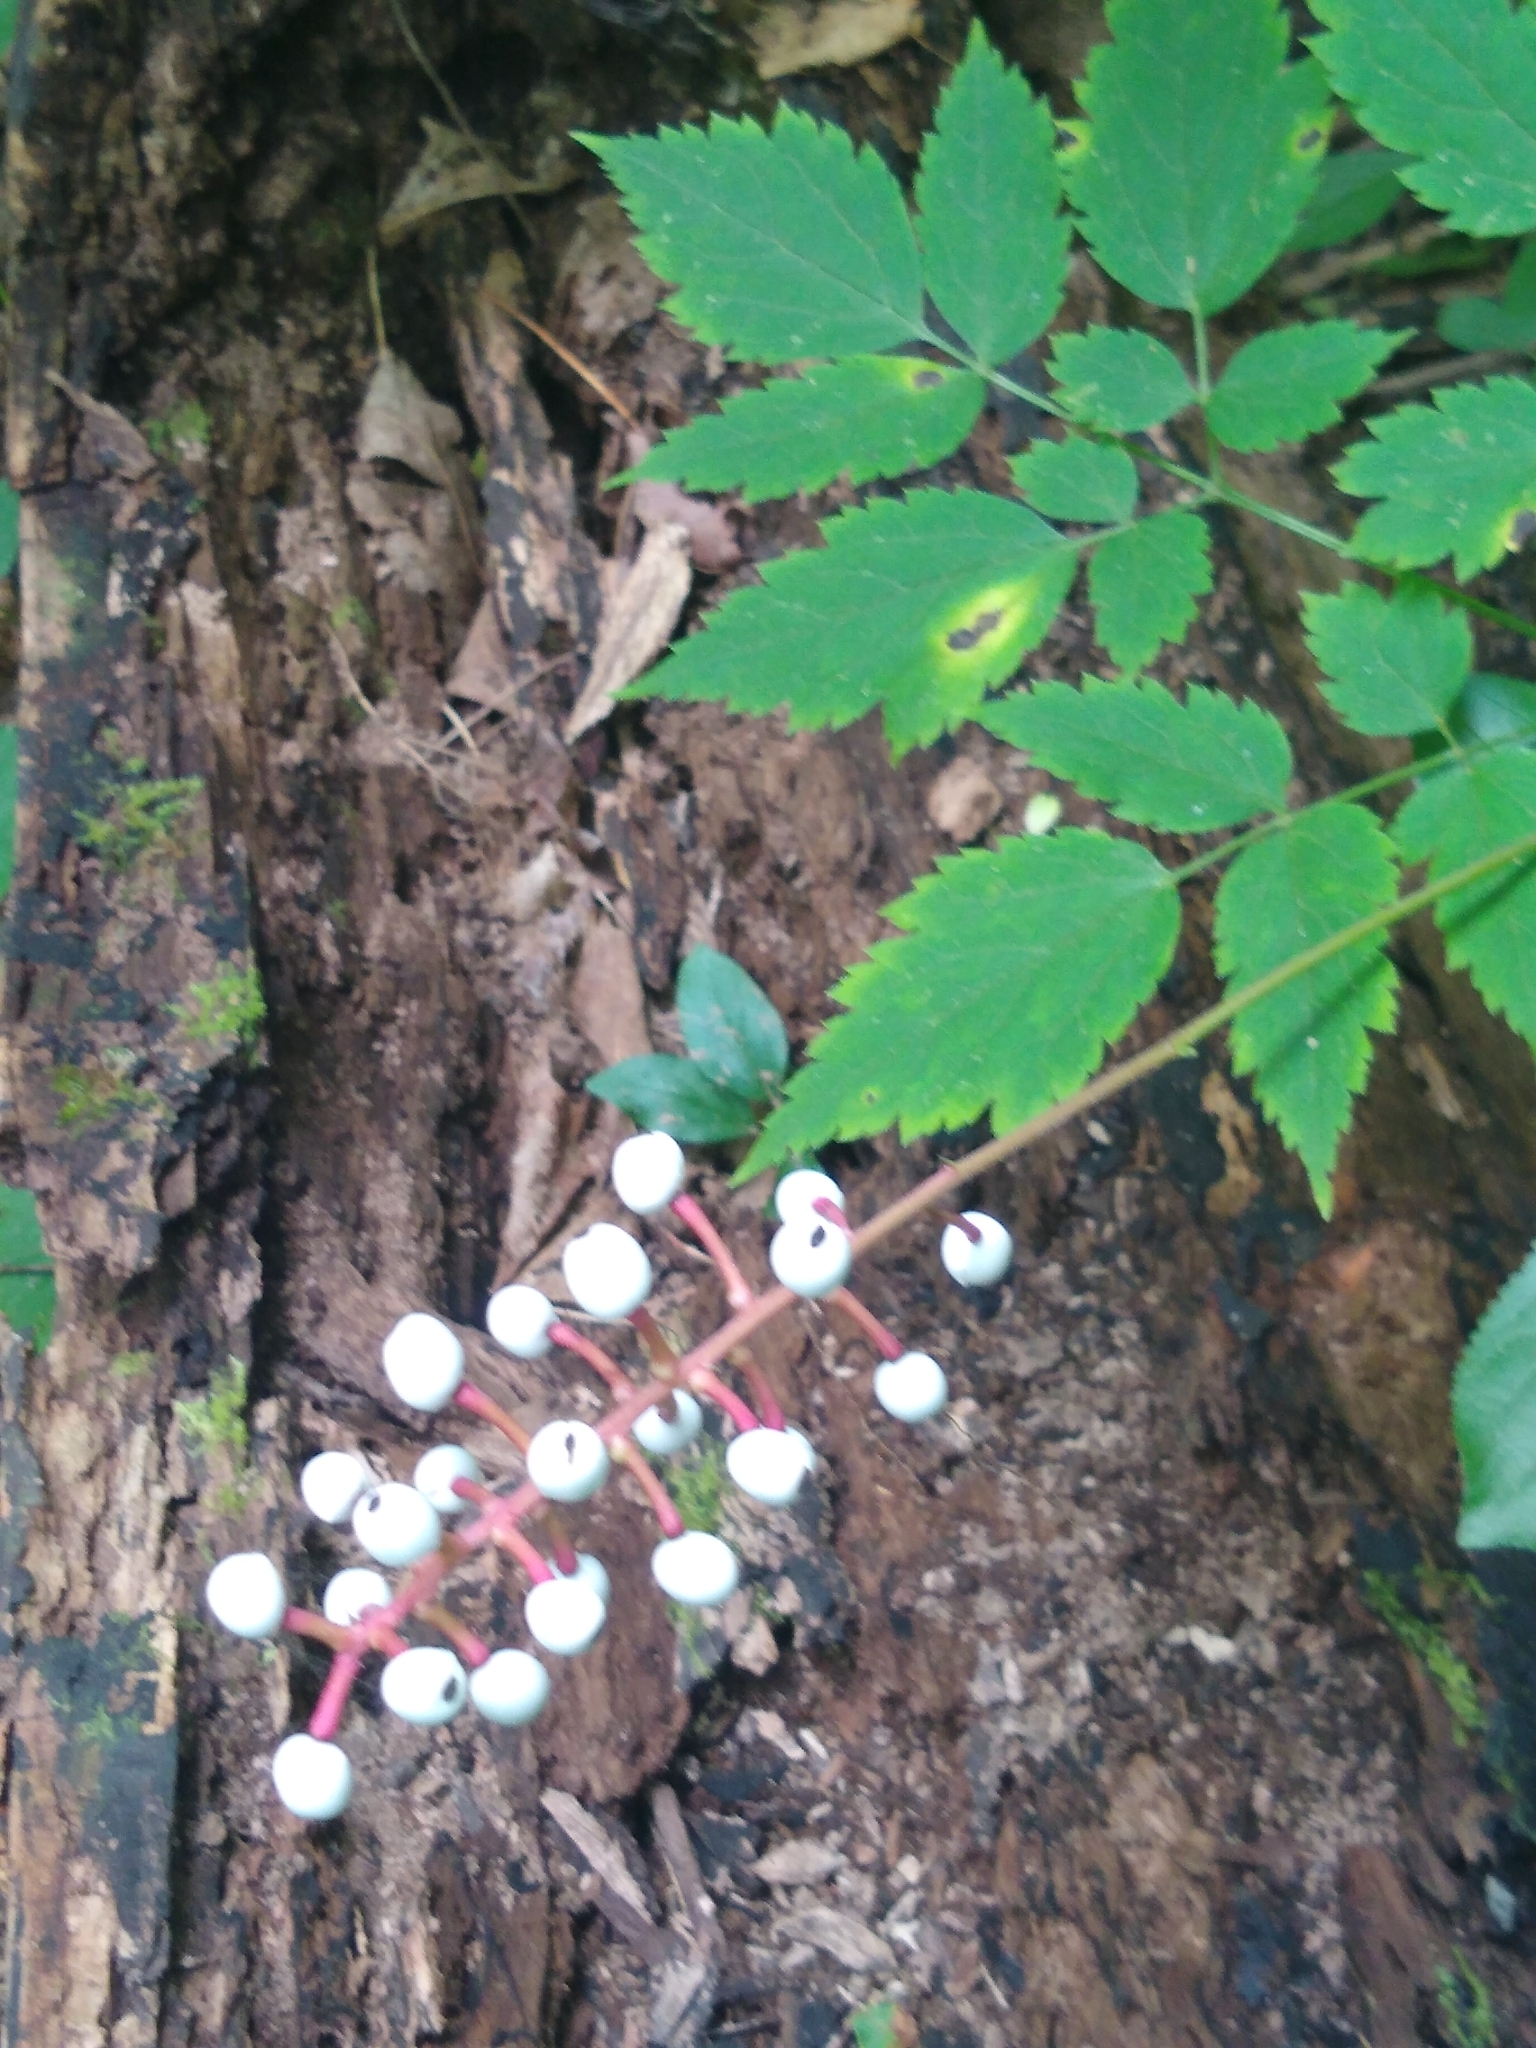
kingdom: Plantae
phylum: Tracheophyta
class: Magnoliopsida
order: Ranunculales
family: Ranunculaceae
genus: Actaea
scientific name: Actaea pachypoda
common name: Doll's-eyes
